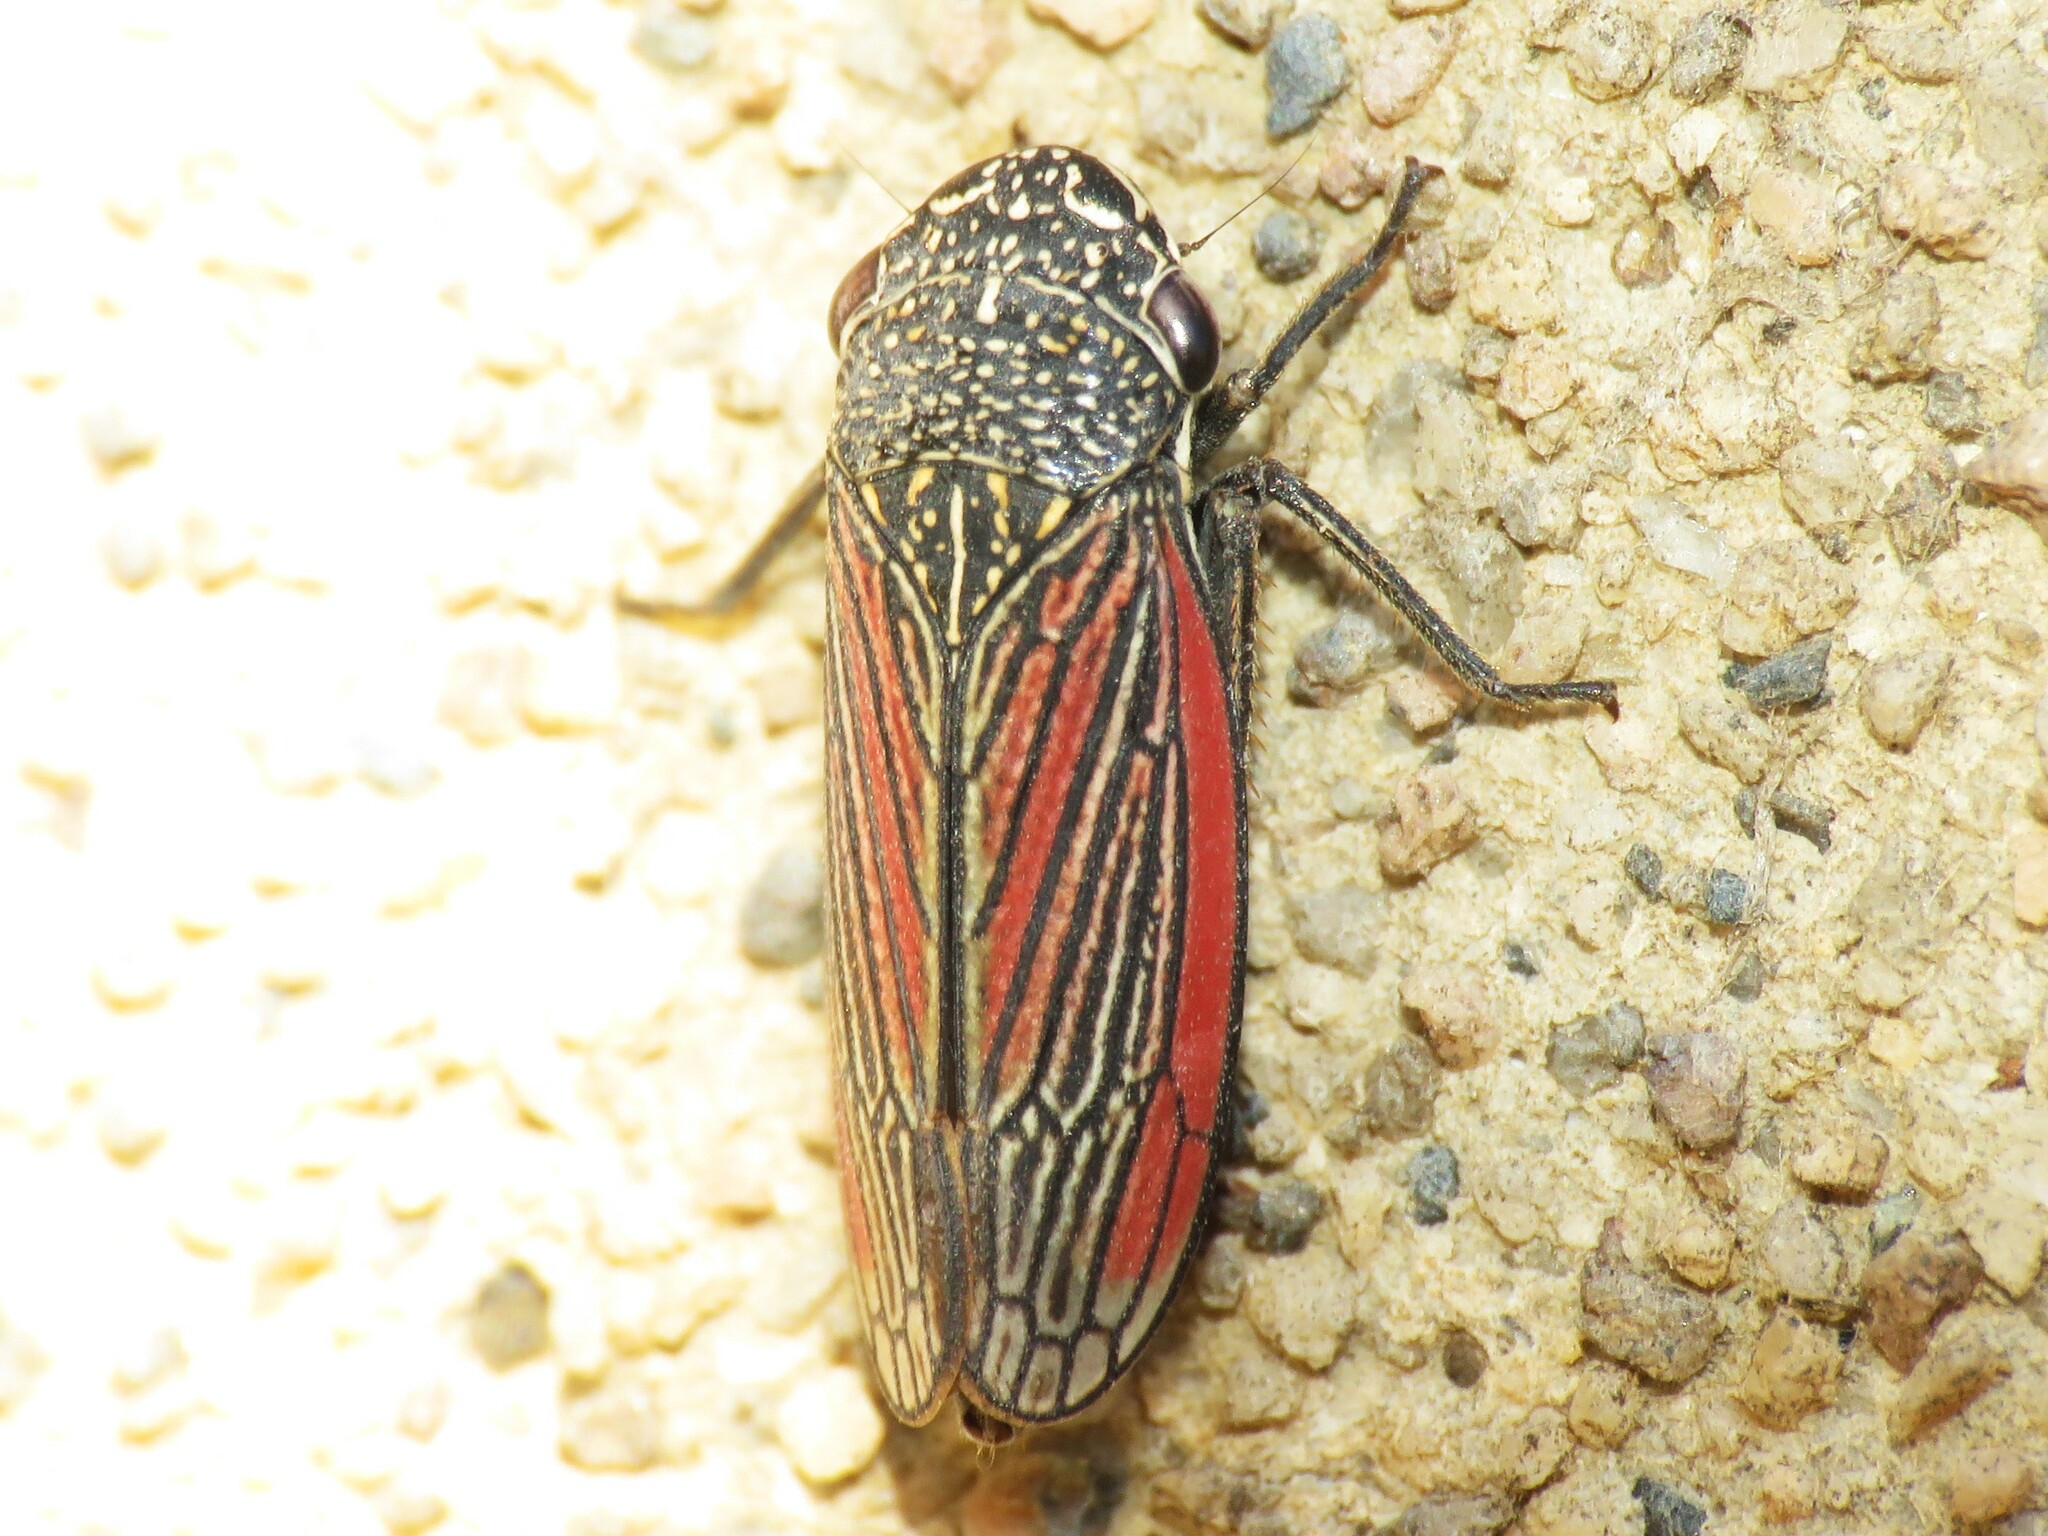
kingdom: Animalia
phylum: Arthropoda
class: Insecta
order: Hemiptera
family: Cicadellidae
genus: Cuerna
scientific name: Cuerna striata
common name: Striped leafhopper
